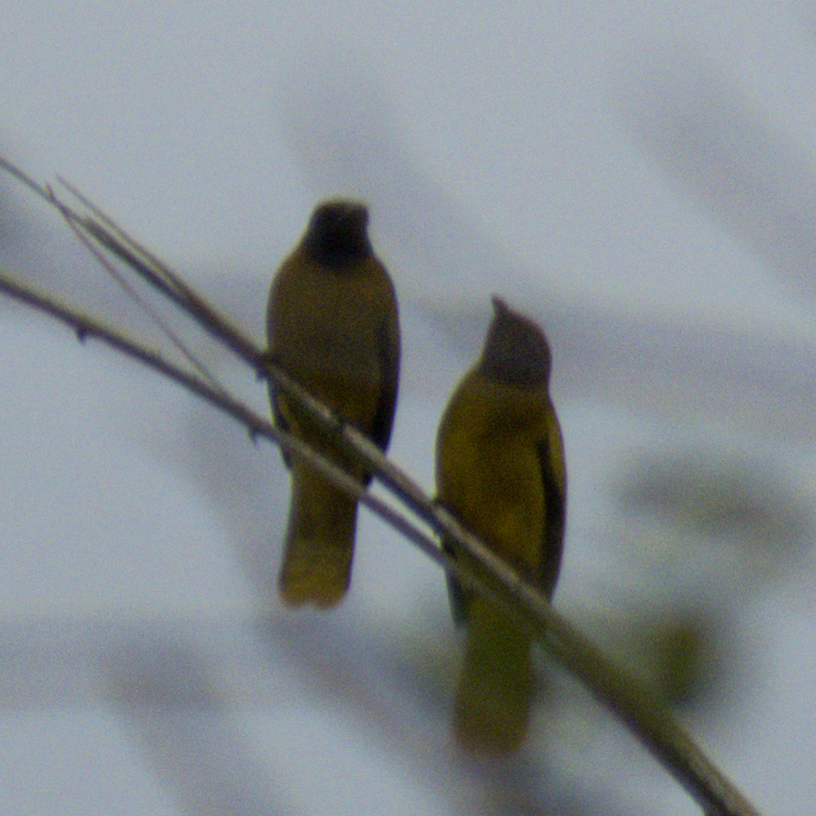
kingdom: Animalia
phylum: Chordata
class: Aves
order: Passeriformes
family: Pycnonotidae
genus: Microtarsus
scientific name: Microtarsus
